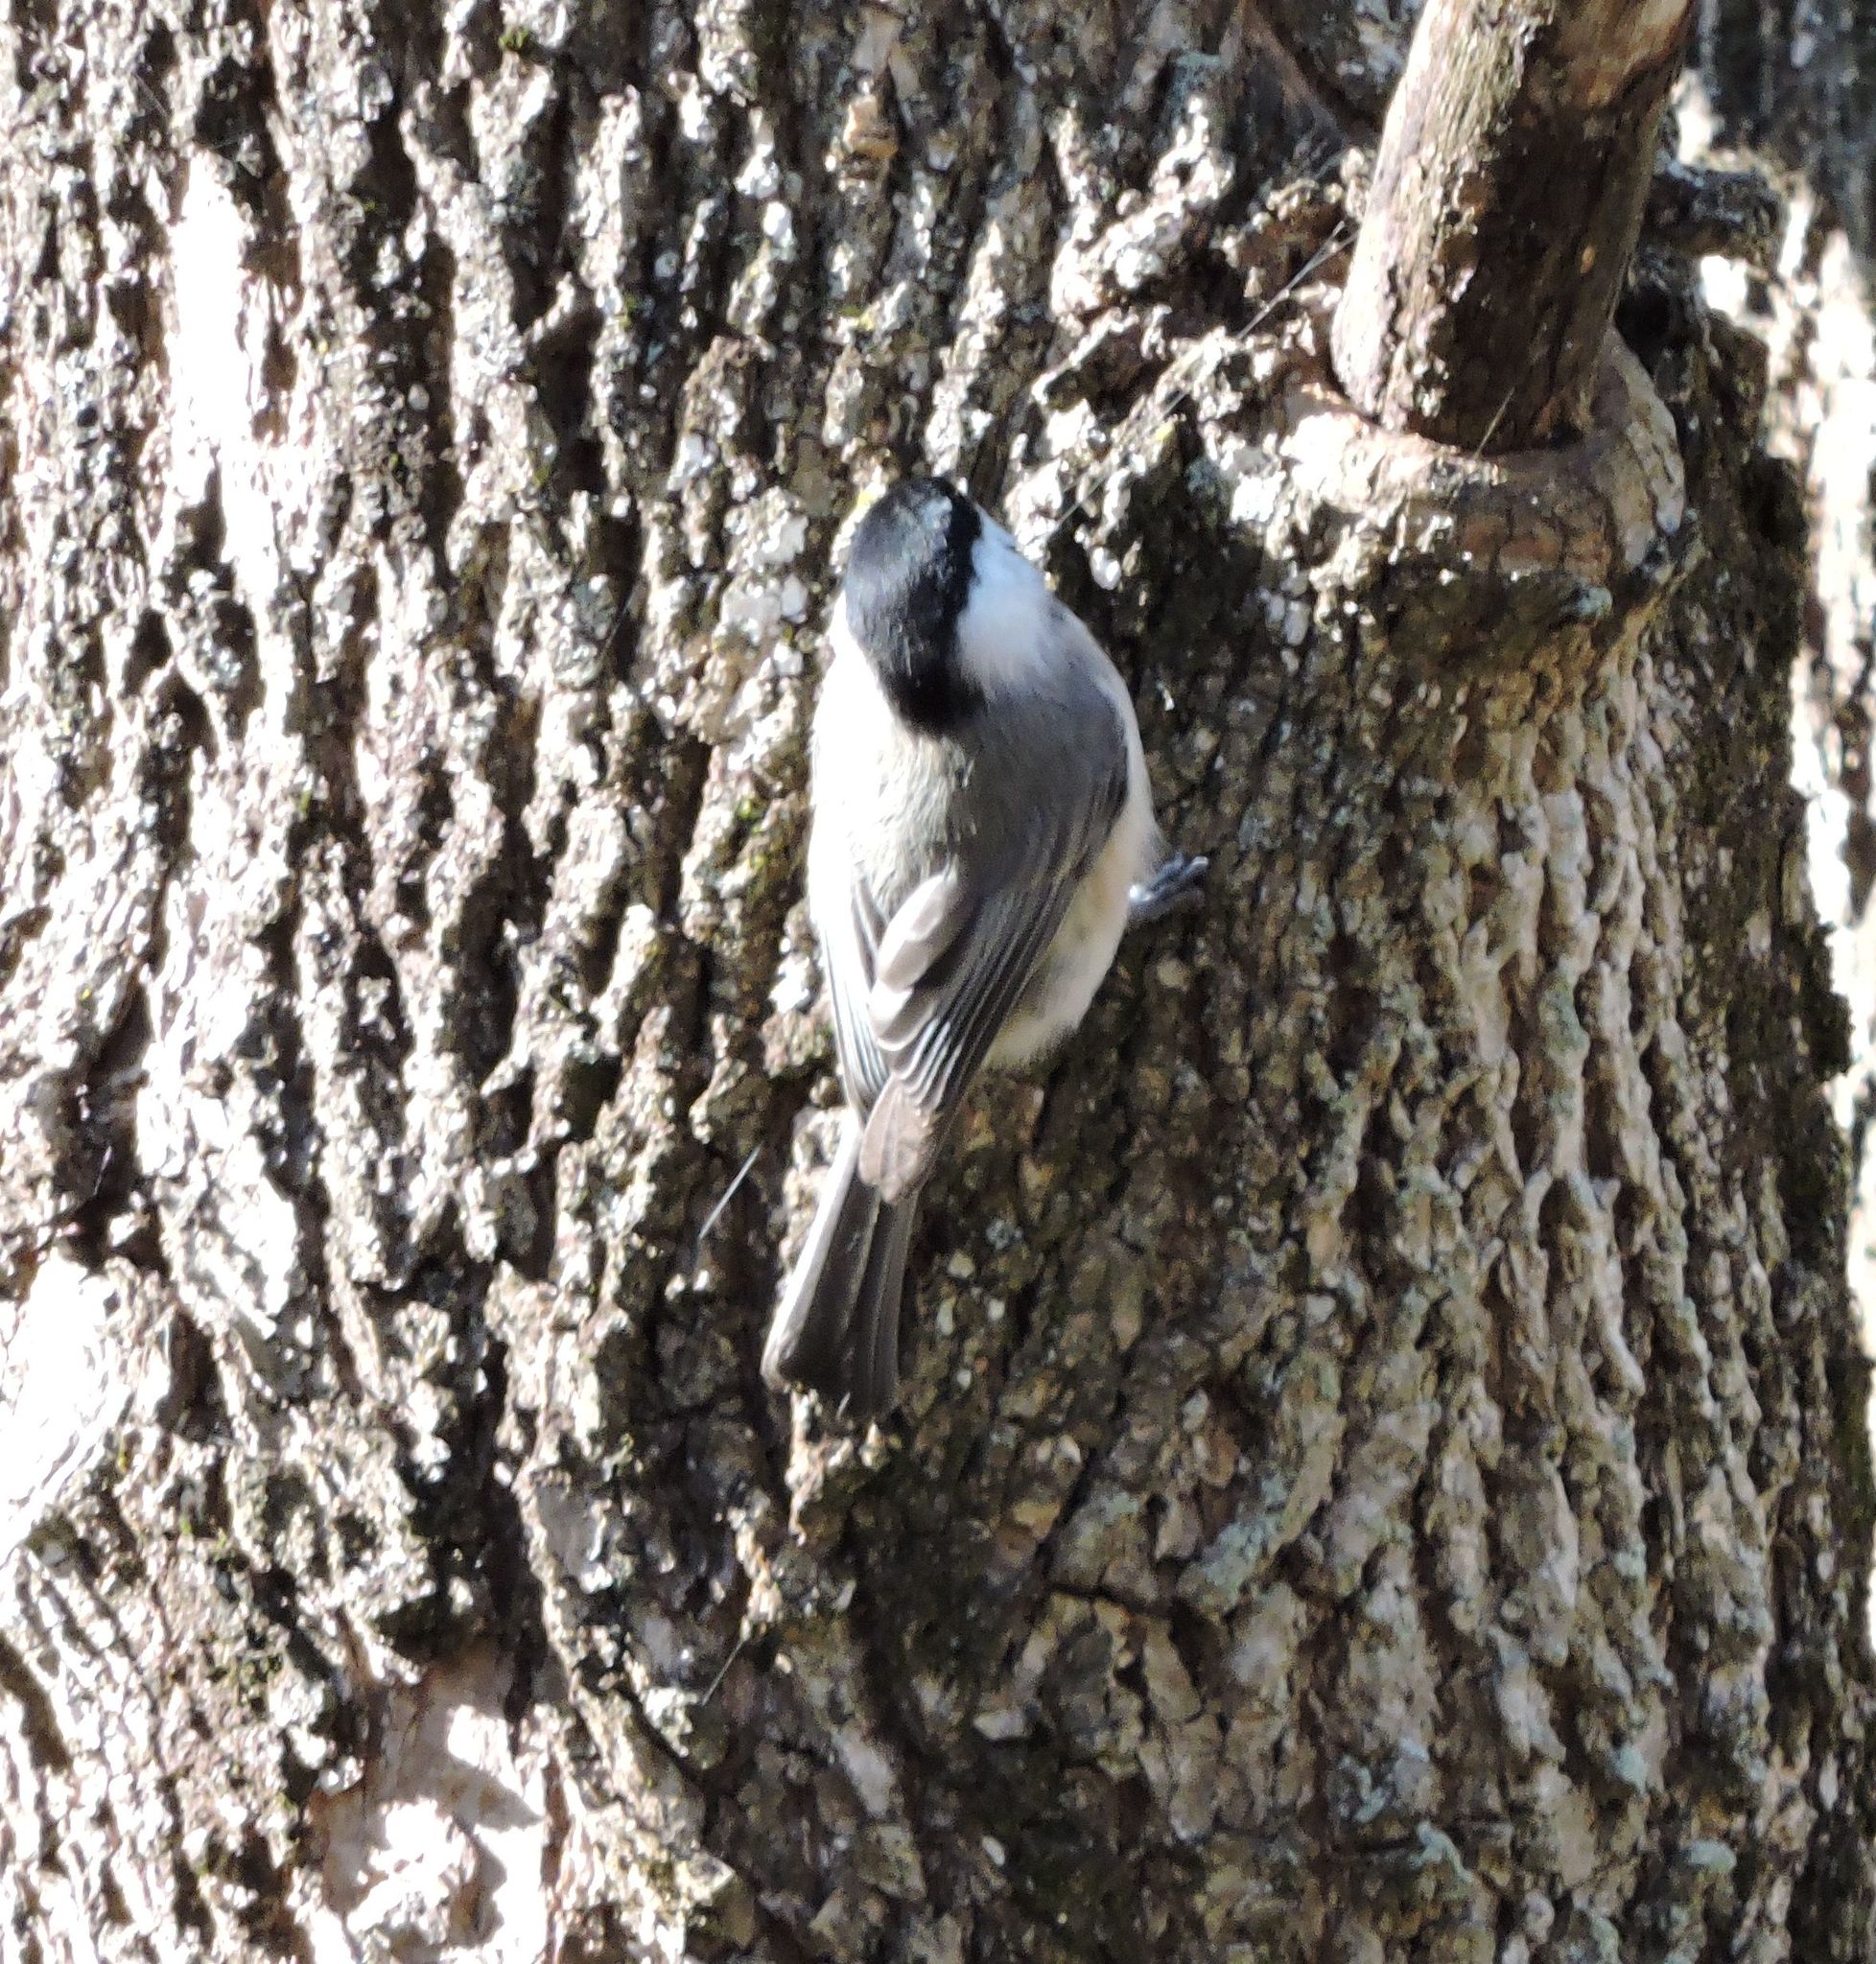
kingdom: Animalia
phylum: Chordata
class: Aves
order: Passeriformes
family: Paridae
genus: Poecile
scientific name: Poecile carolinensis
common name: Carolina chickadee
